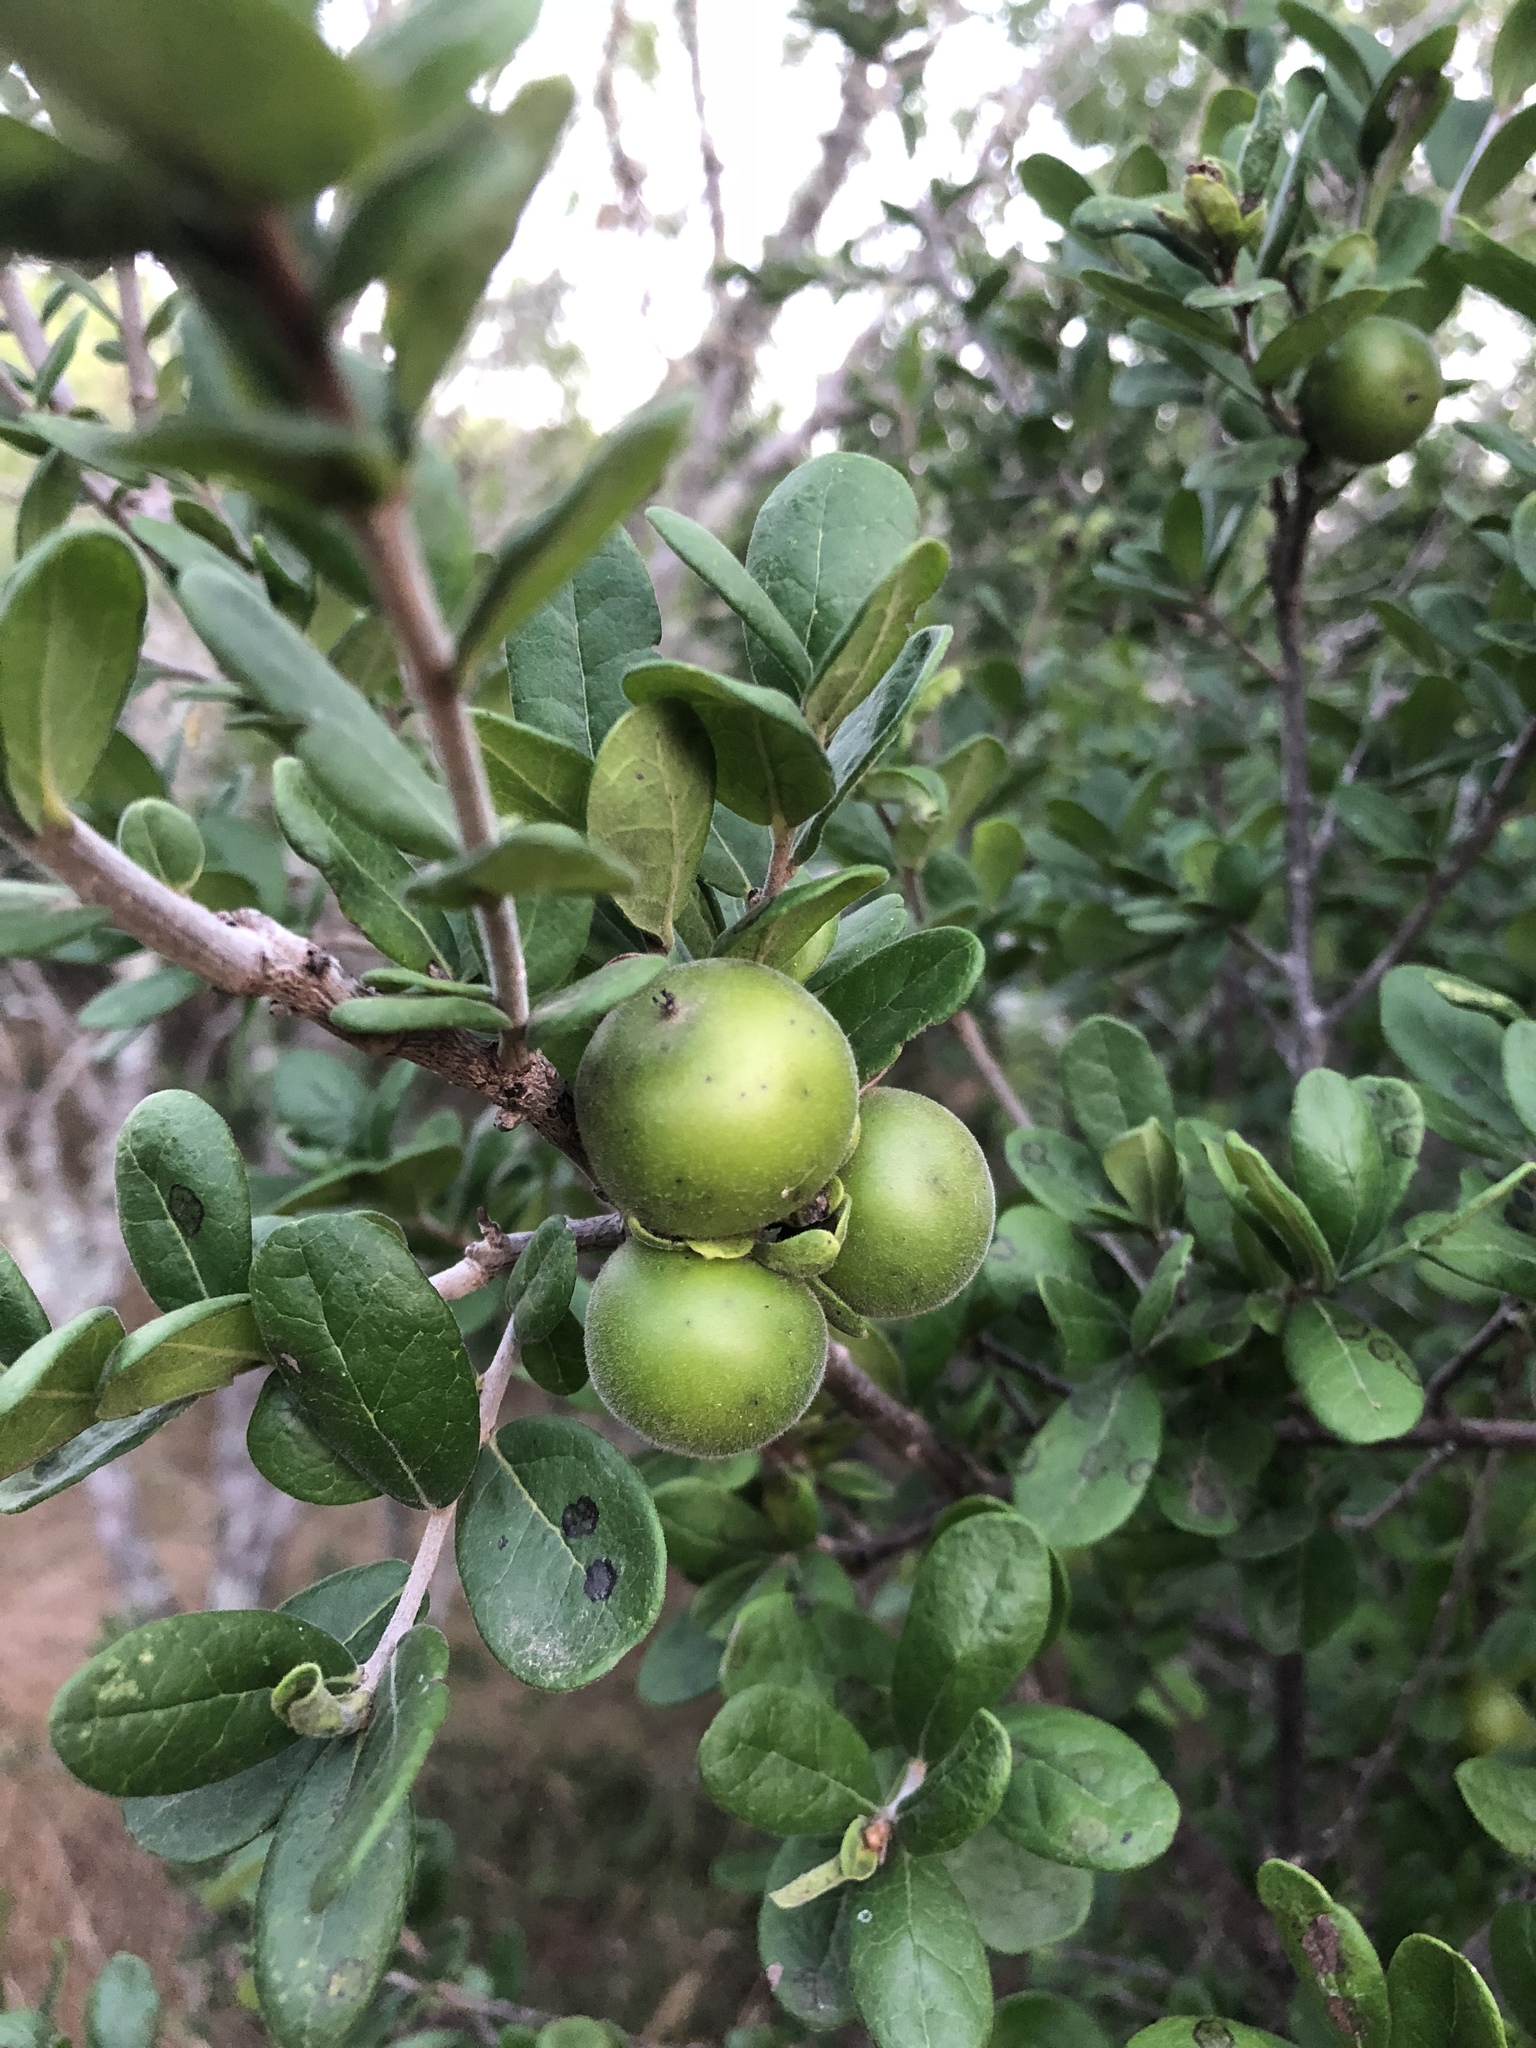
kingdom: Plantae
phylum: Tracheophyta
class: Magnoliopsida
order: Ericales
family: Ebenaceae
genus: Diospyros
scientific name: Diospyros texana
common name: Texas persimmon
